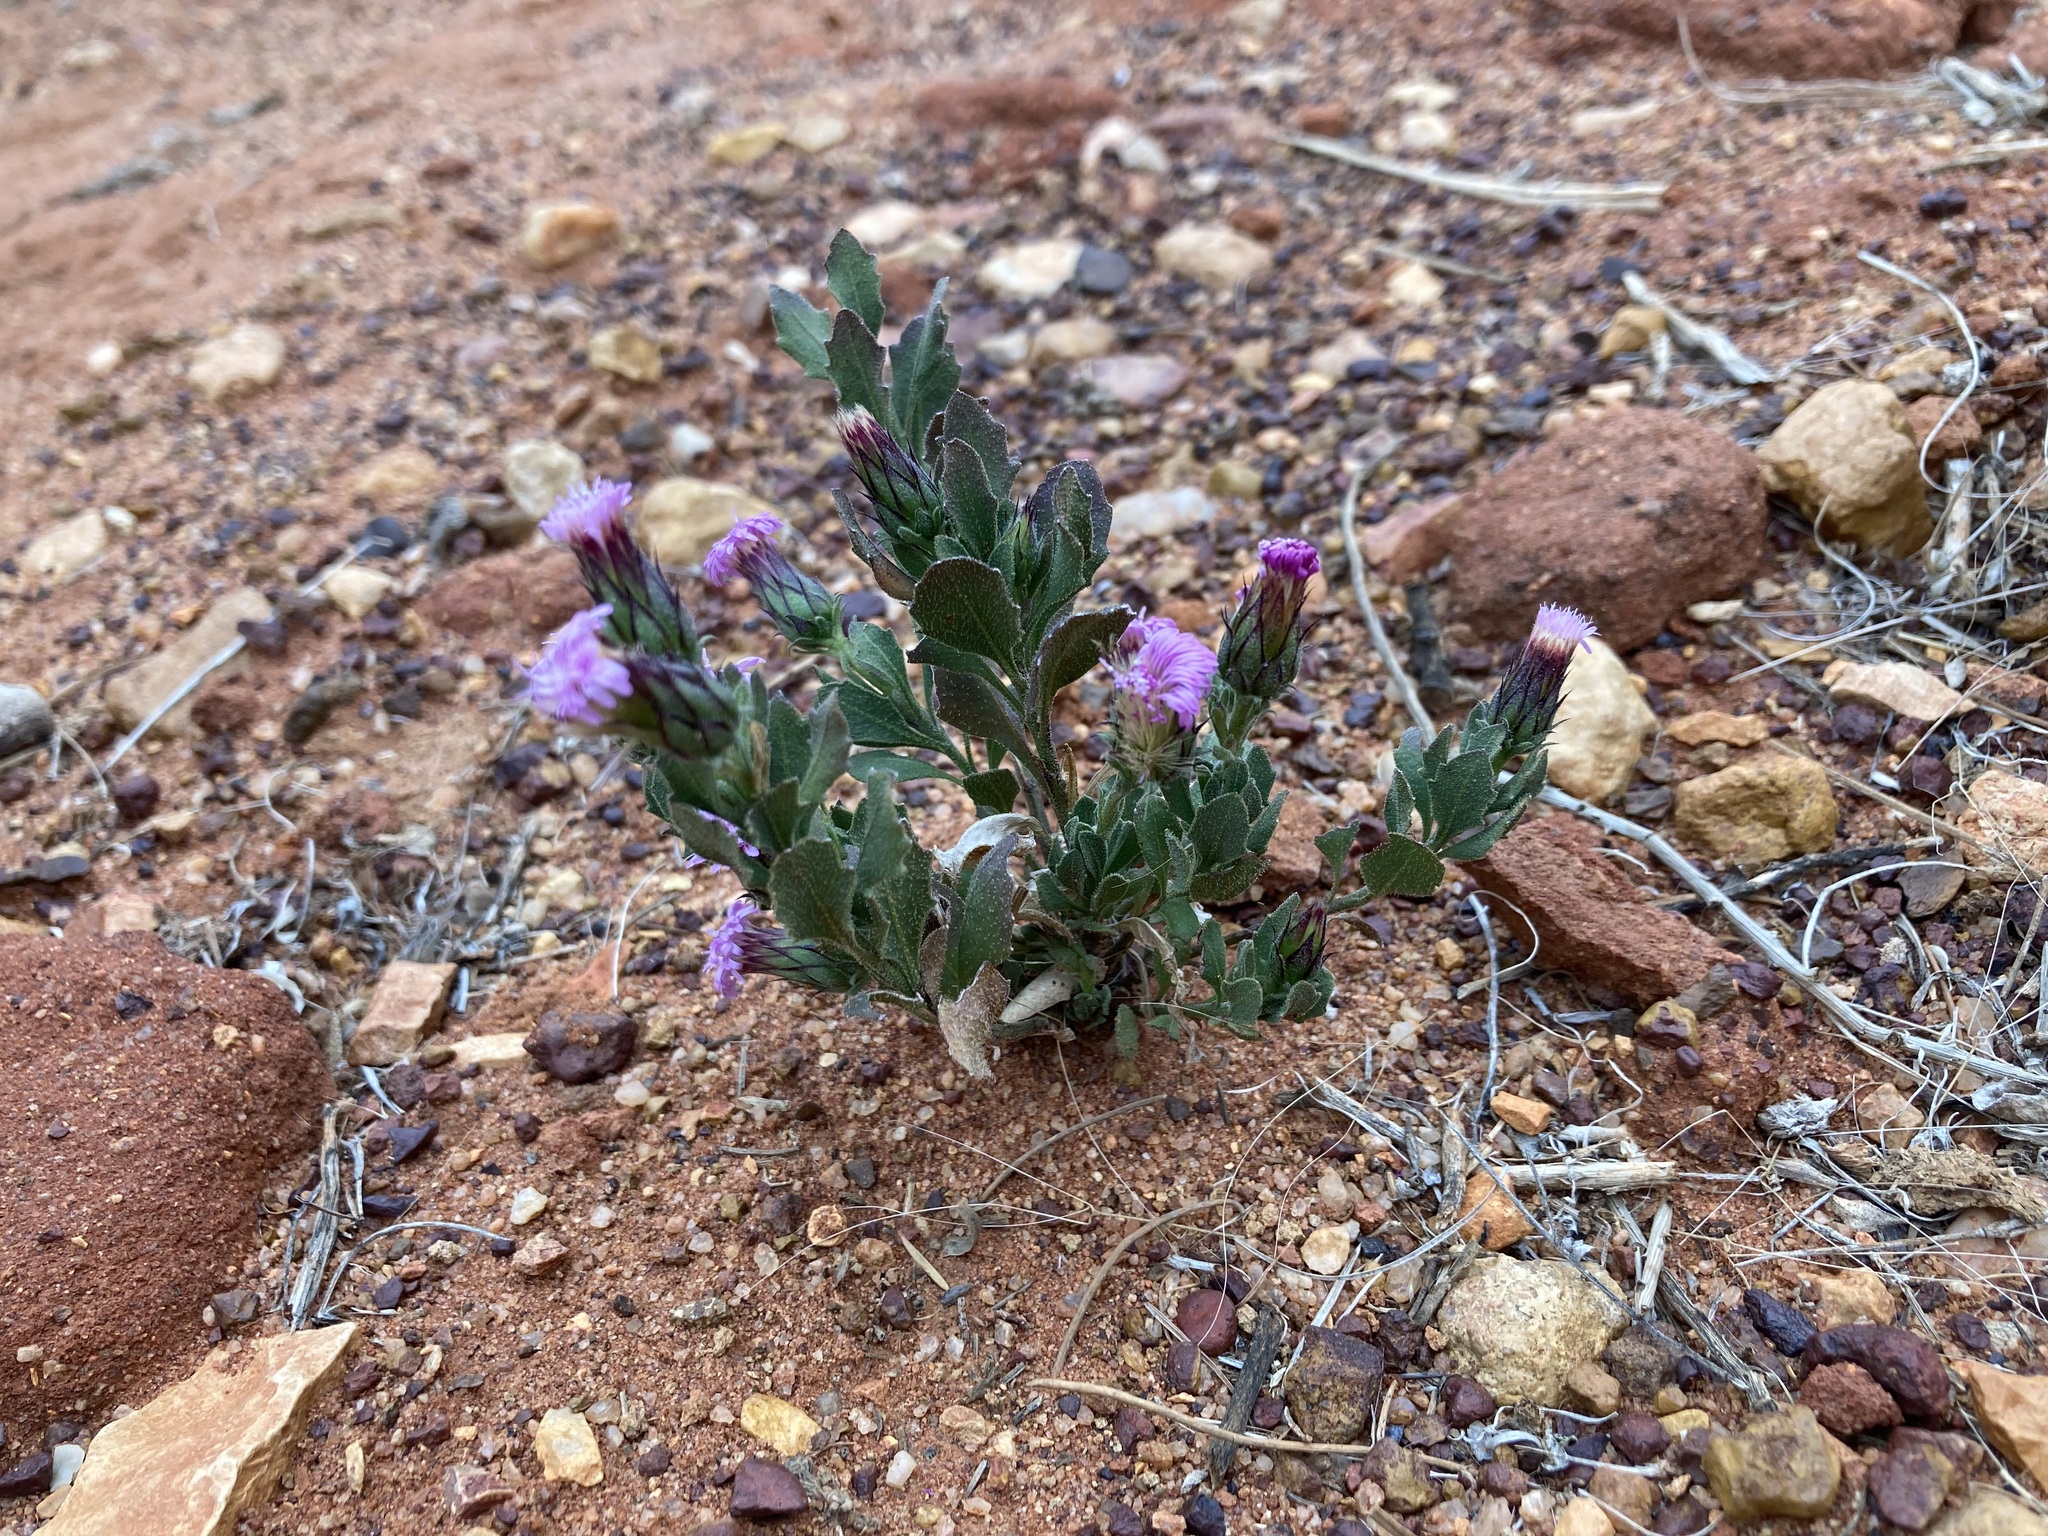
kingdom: Plantae
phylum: Tracheophyta
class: Magnoliopsida
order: Asterales
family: Asteraceae
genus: Streptoglossa
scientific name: Streptoglossa liatroides
